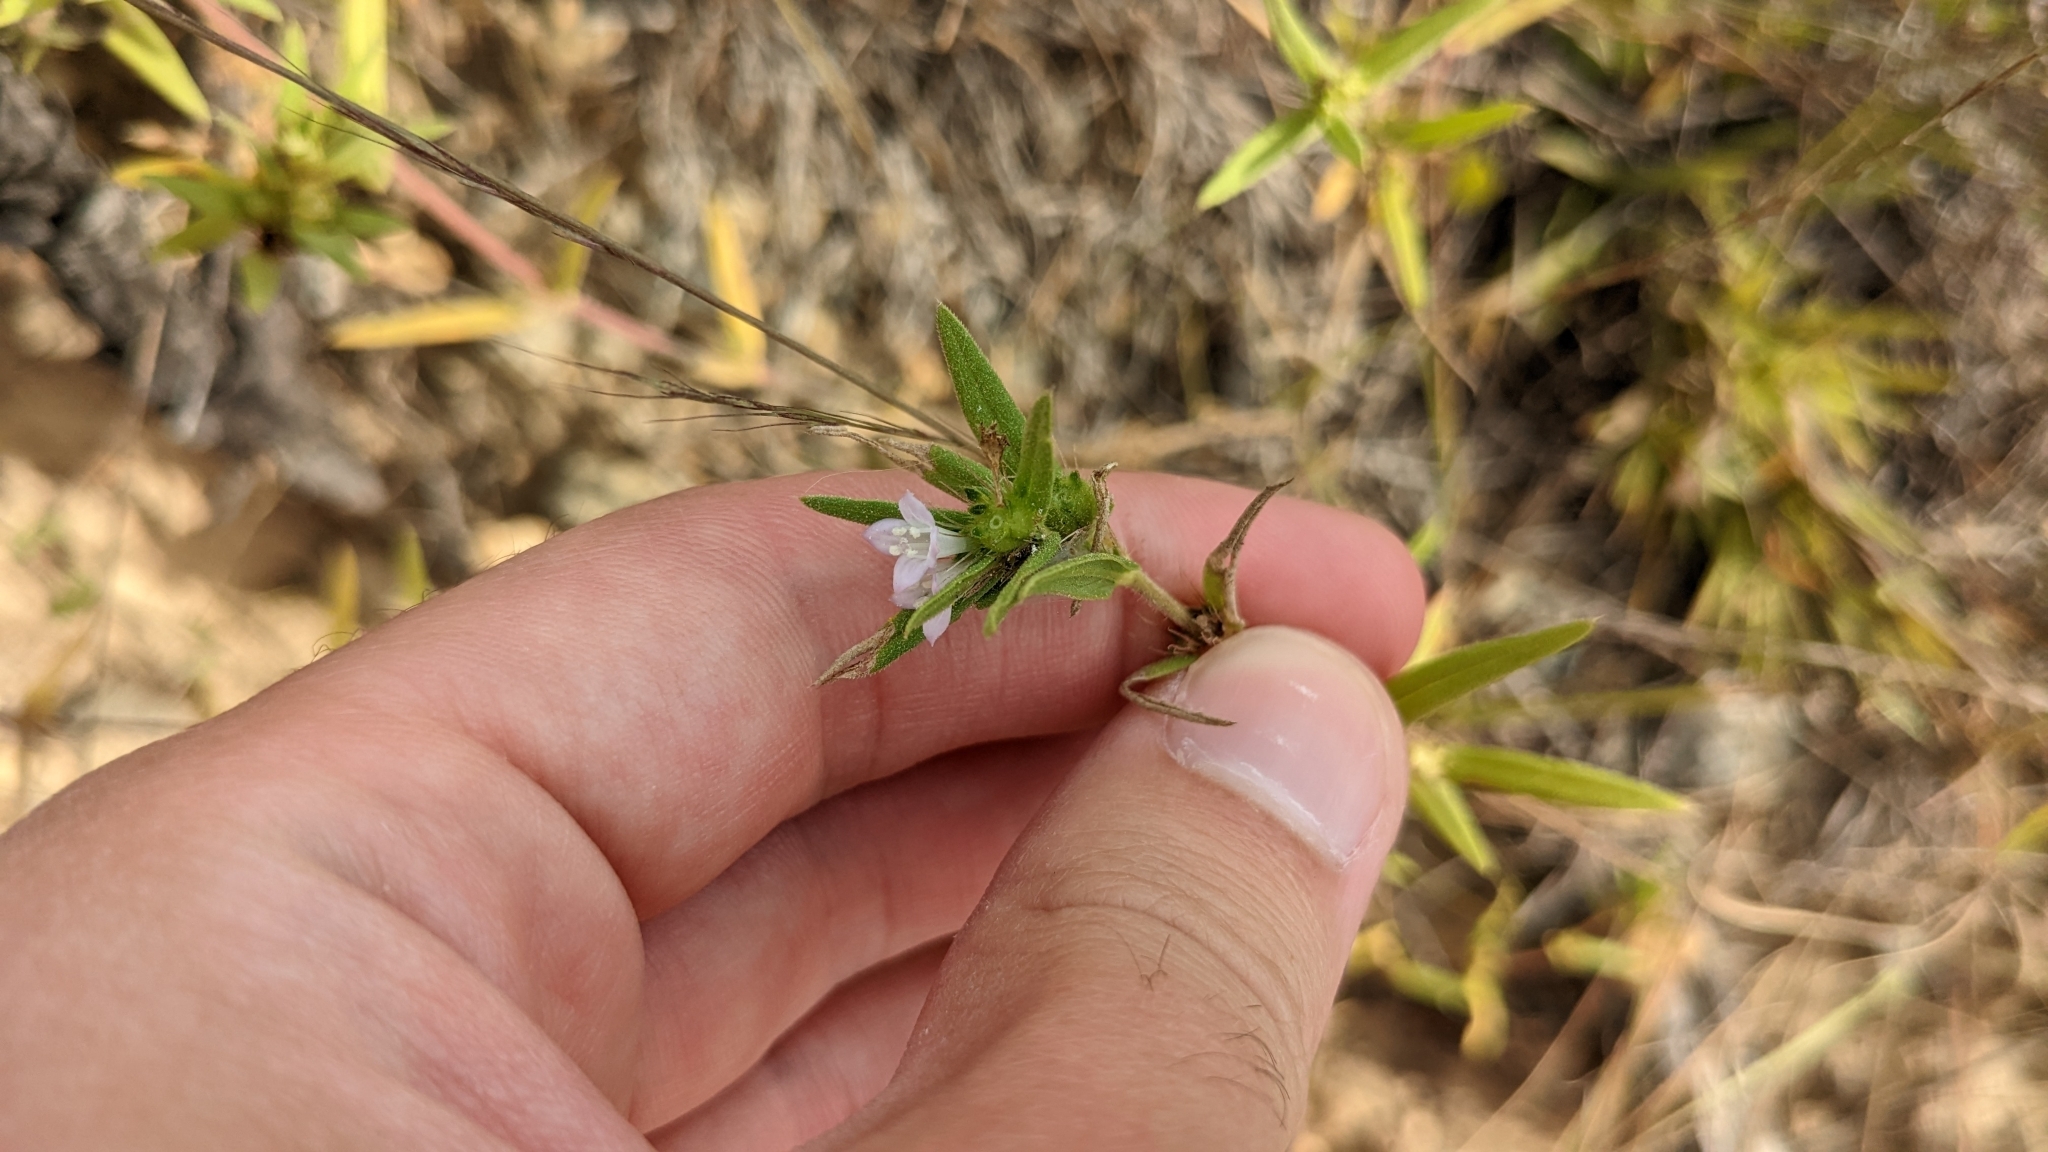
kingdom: Plantae
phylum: Tracheophyta
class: Magnoliopsida
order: Gentianales
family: Rubiaceae
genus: Hexasepalum
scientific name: Hexasepalum teres
